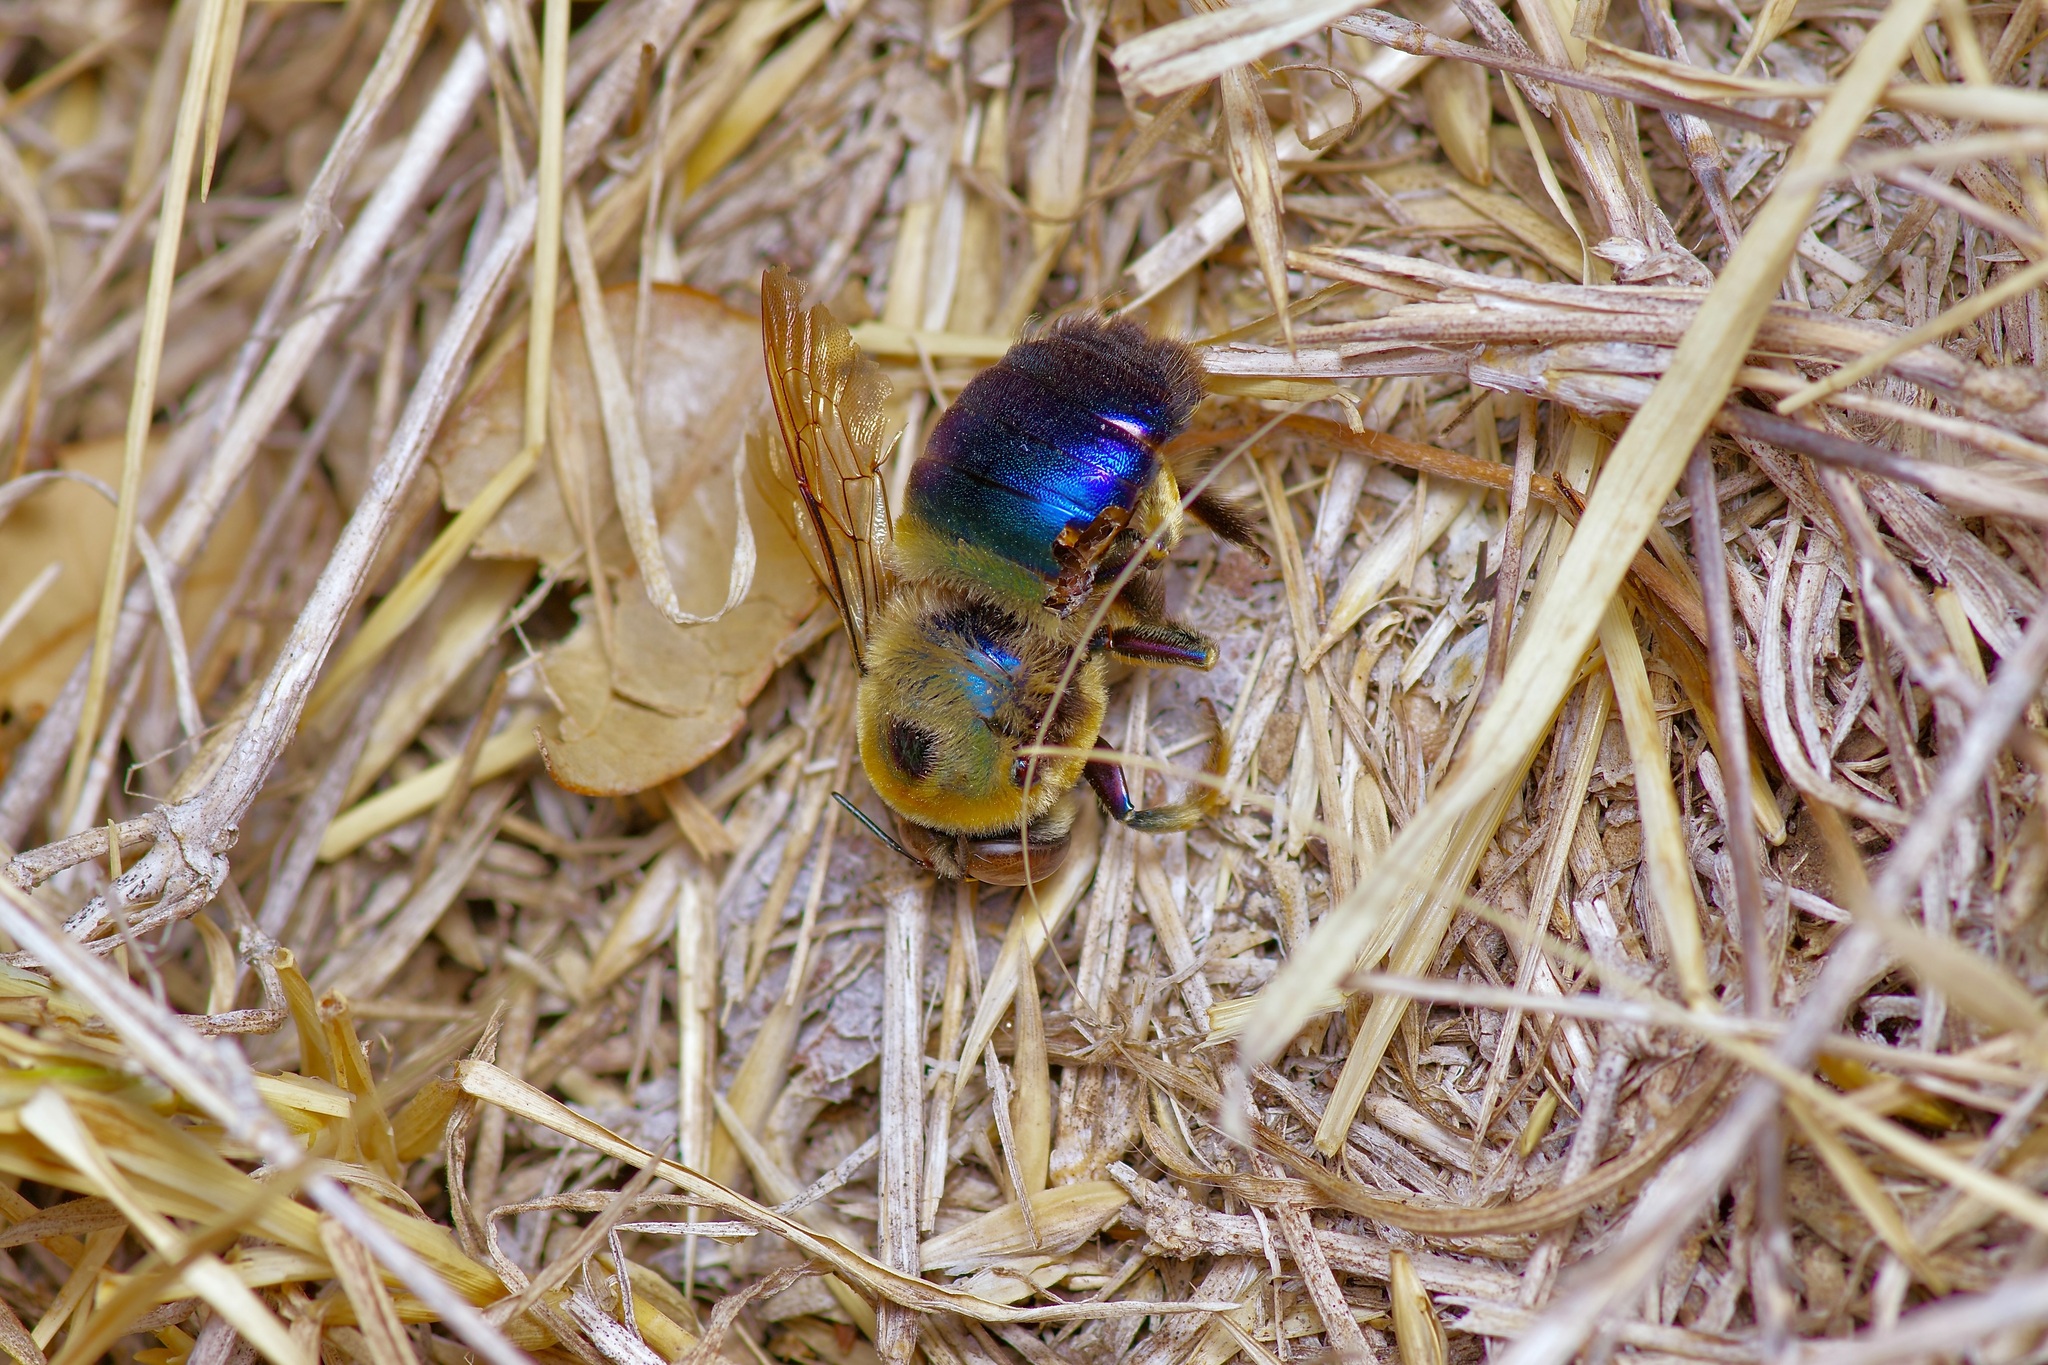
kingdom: Animalia
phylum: Arthropoda
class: Insecta
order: Hymenoptera
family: Apidae
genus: Xylocopa
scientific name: Xylocopa micans
